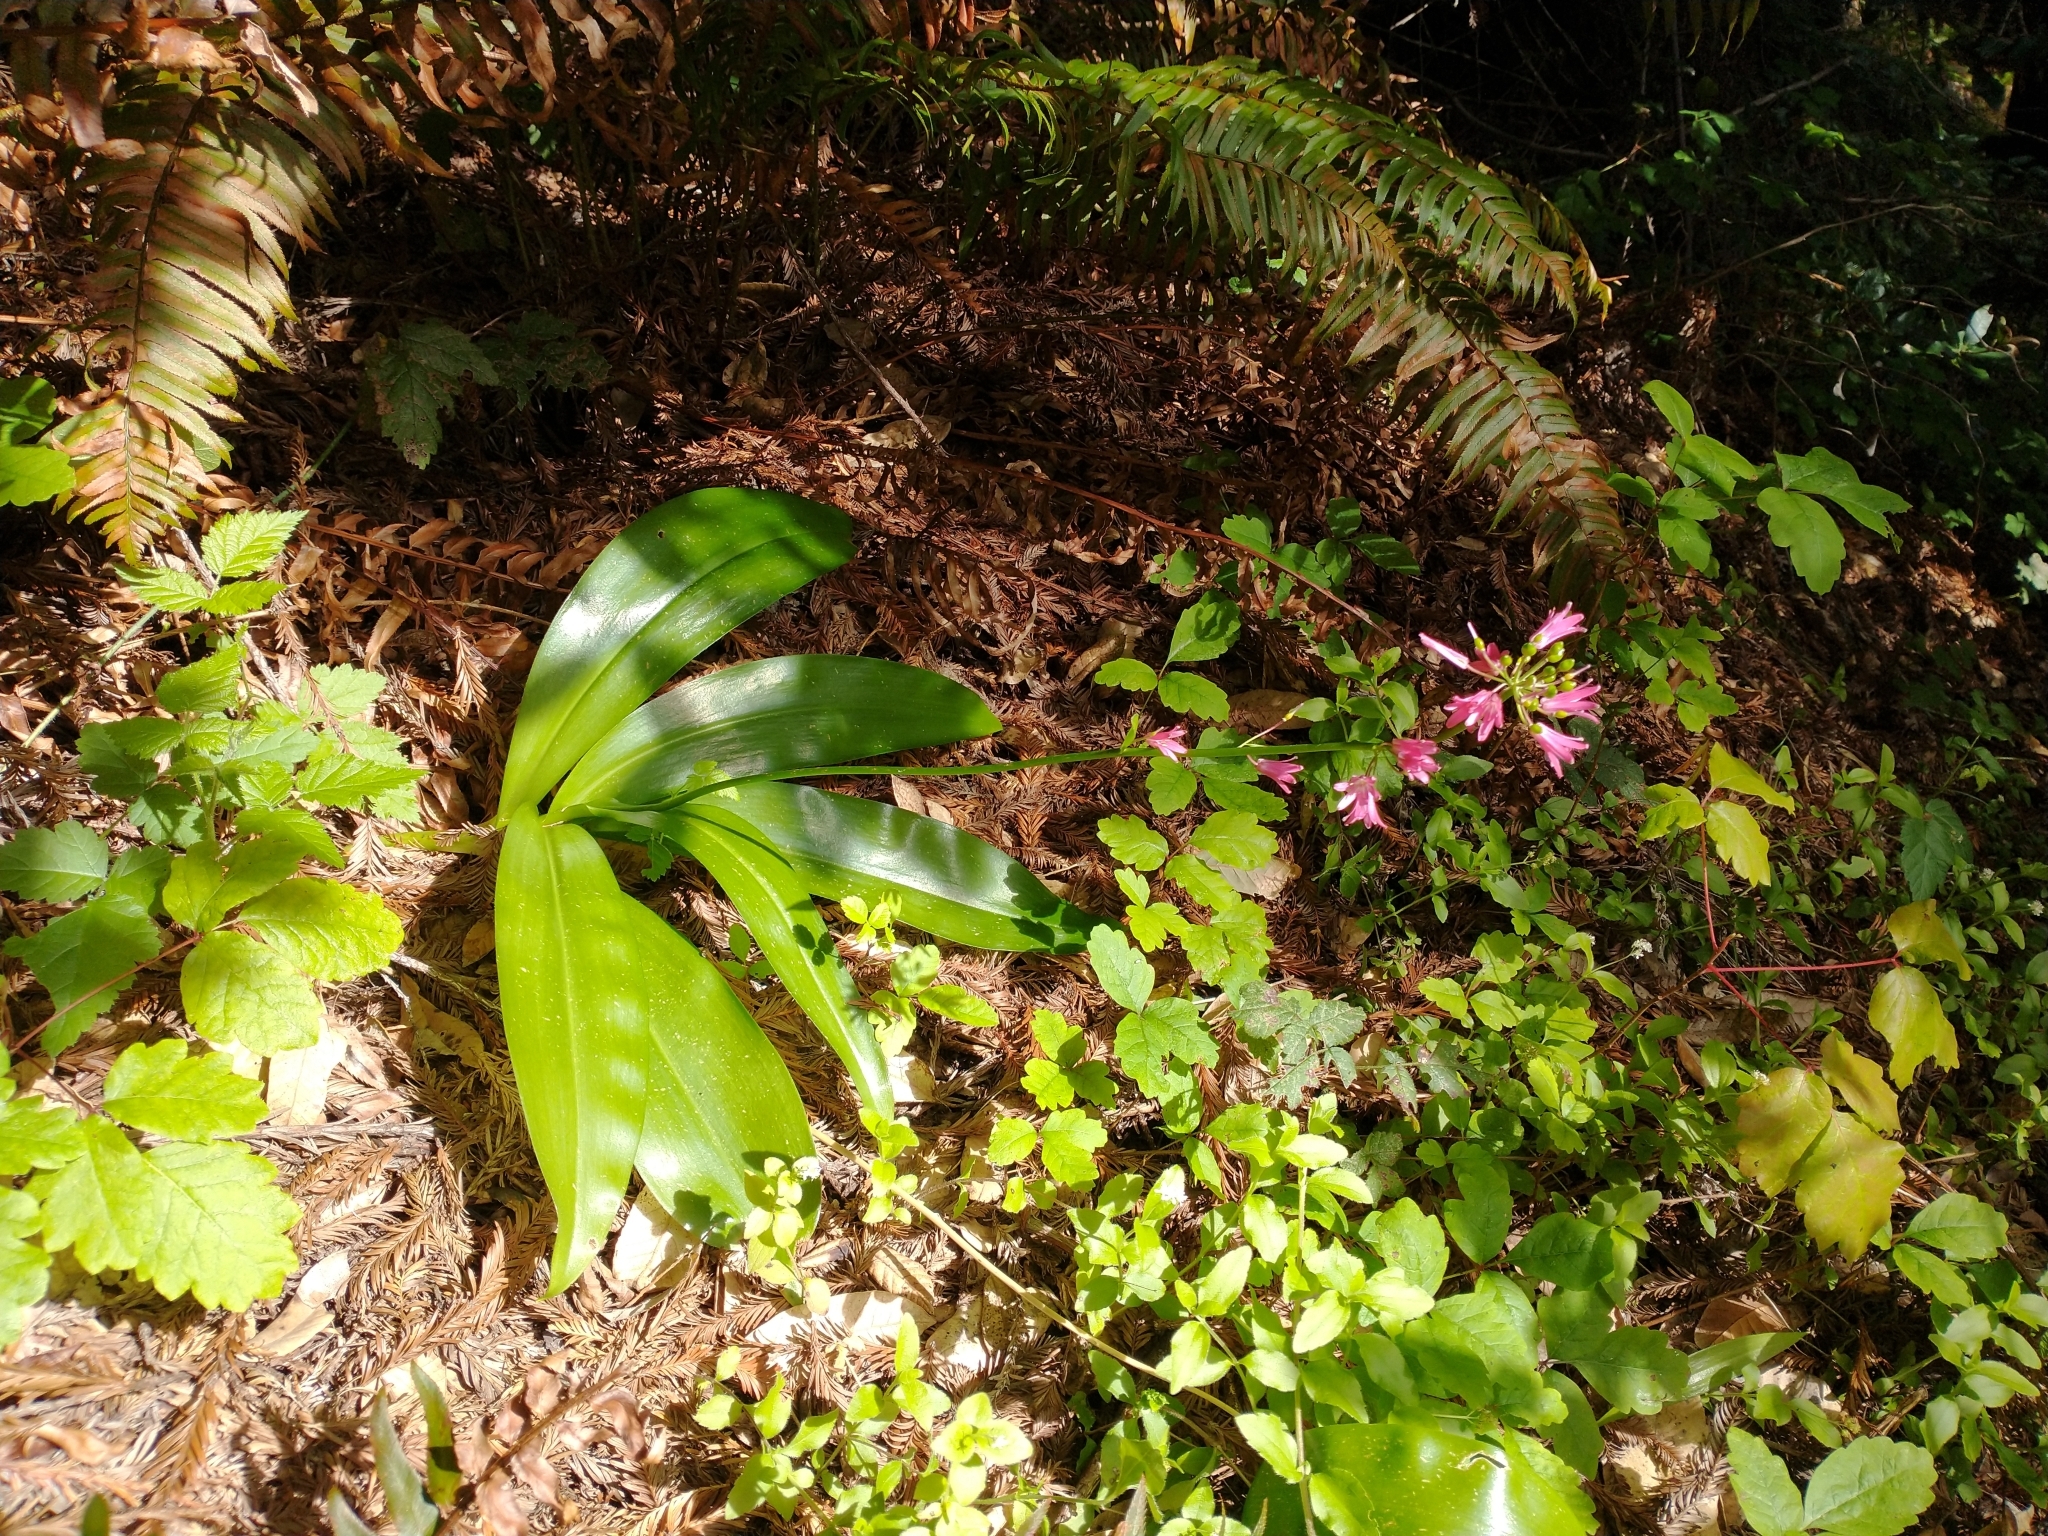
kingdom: Plantae
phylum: Tracheophyta
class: Liliopsida
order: Liliales
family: Liliaceae
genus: Clintonia
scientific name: Clintonia andrewsiana
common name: Red clintonia
